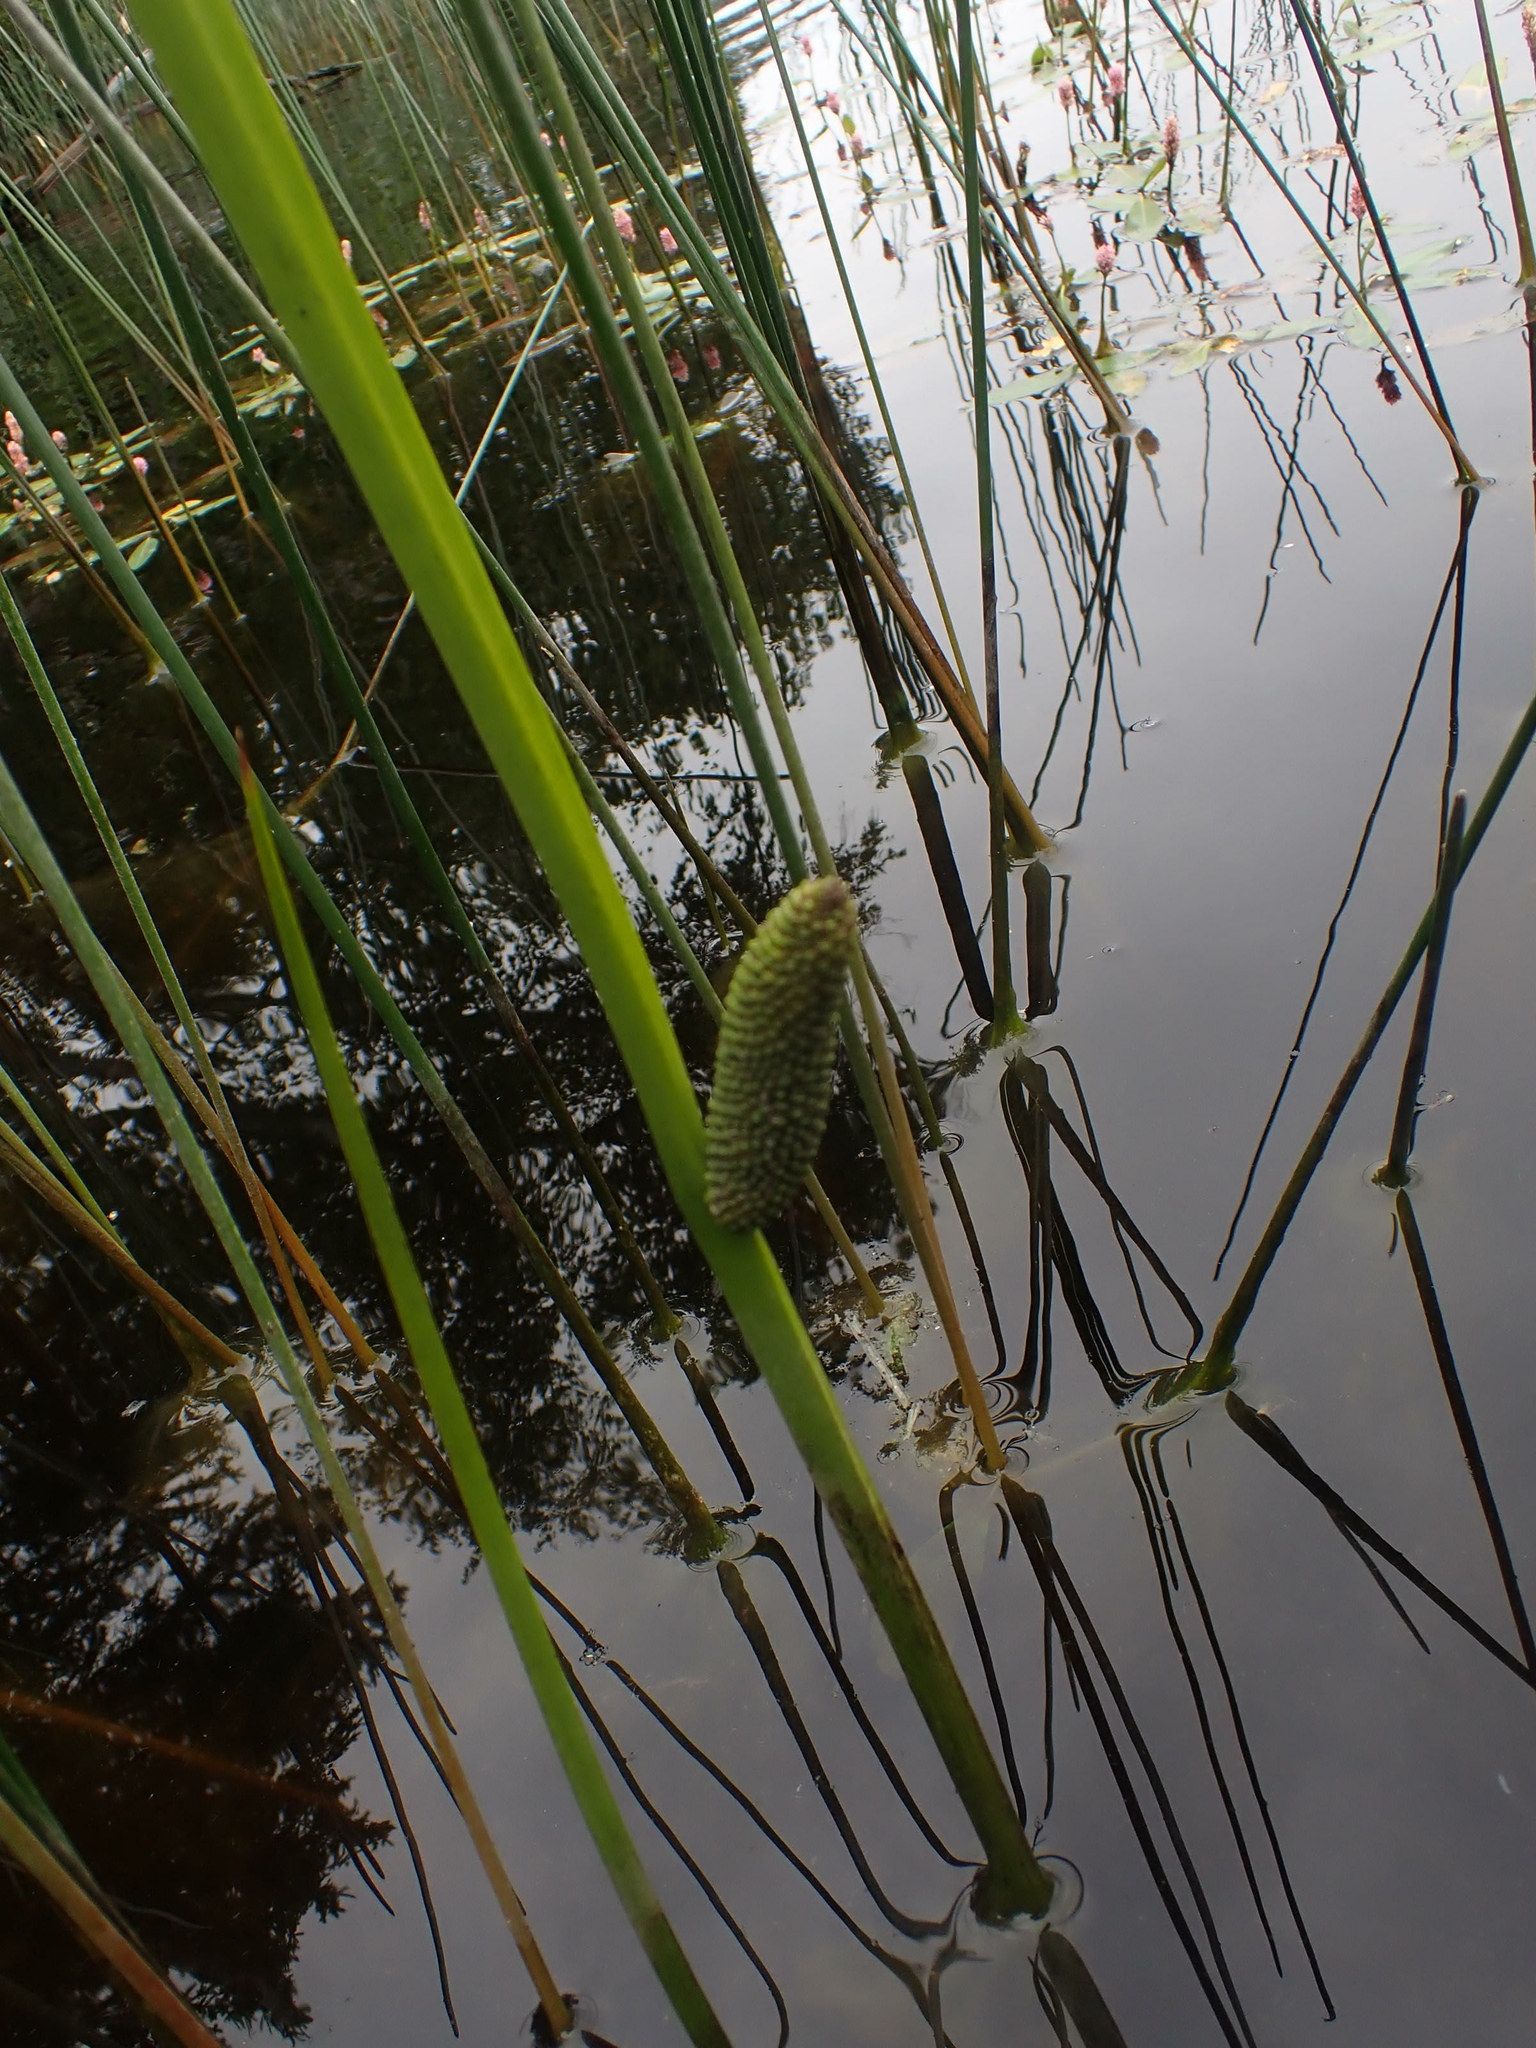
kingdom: Plantae
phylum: Tracheophyta
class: Liliopsida
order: Acorales
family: Acoraceae
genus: Acorus
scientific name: Acorus calamus
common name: Sweet-flag
